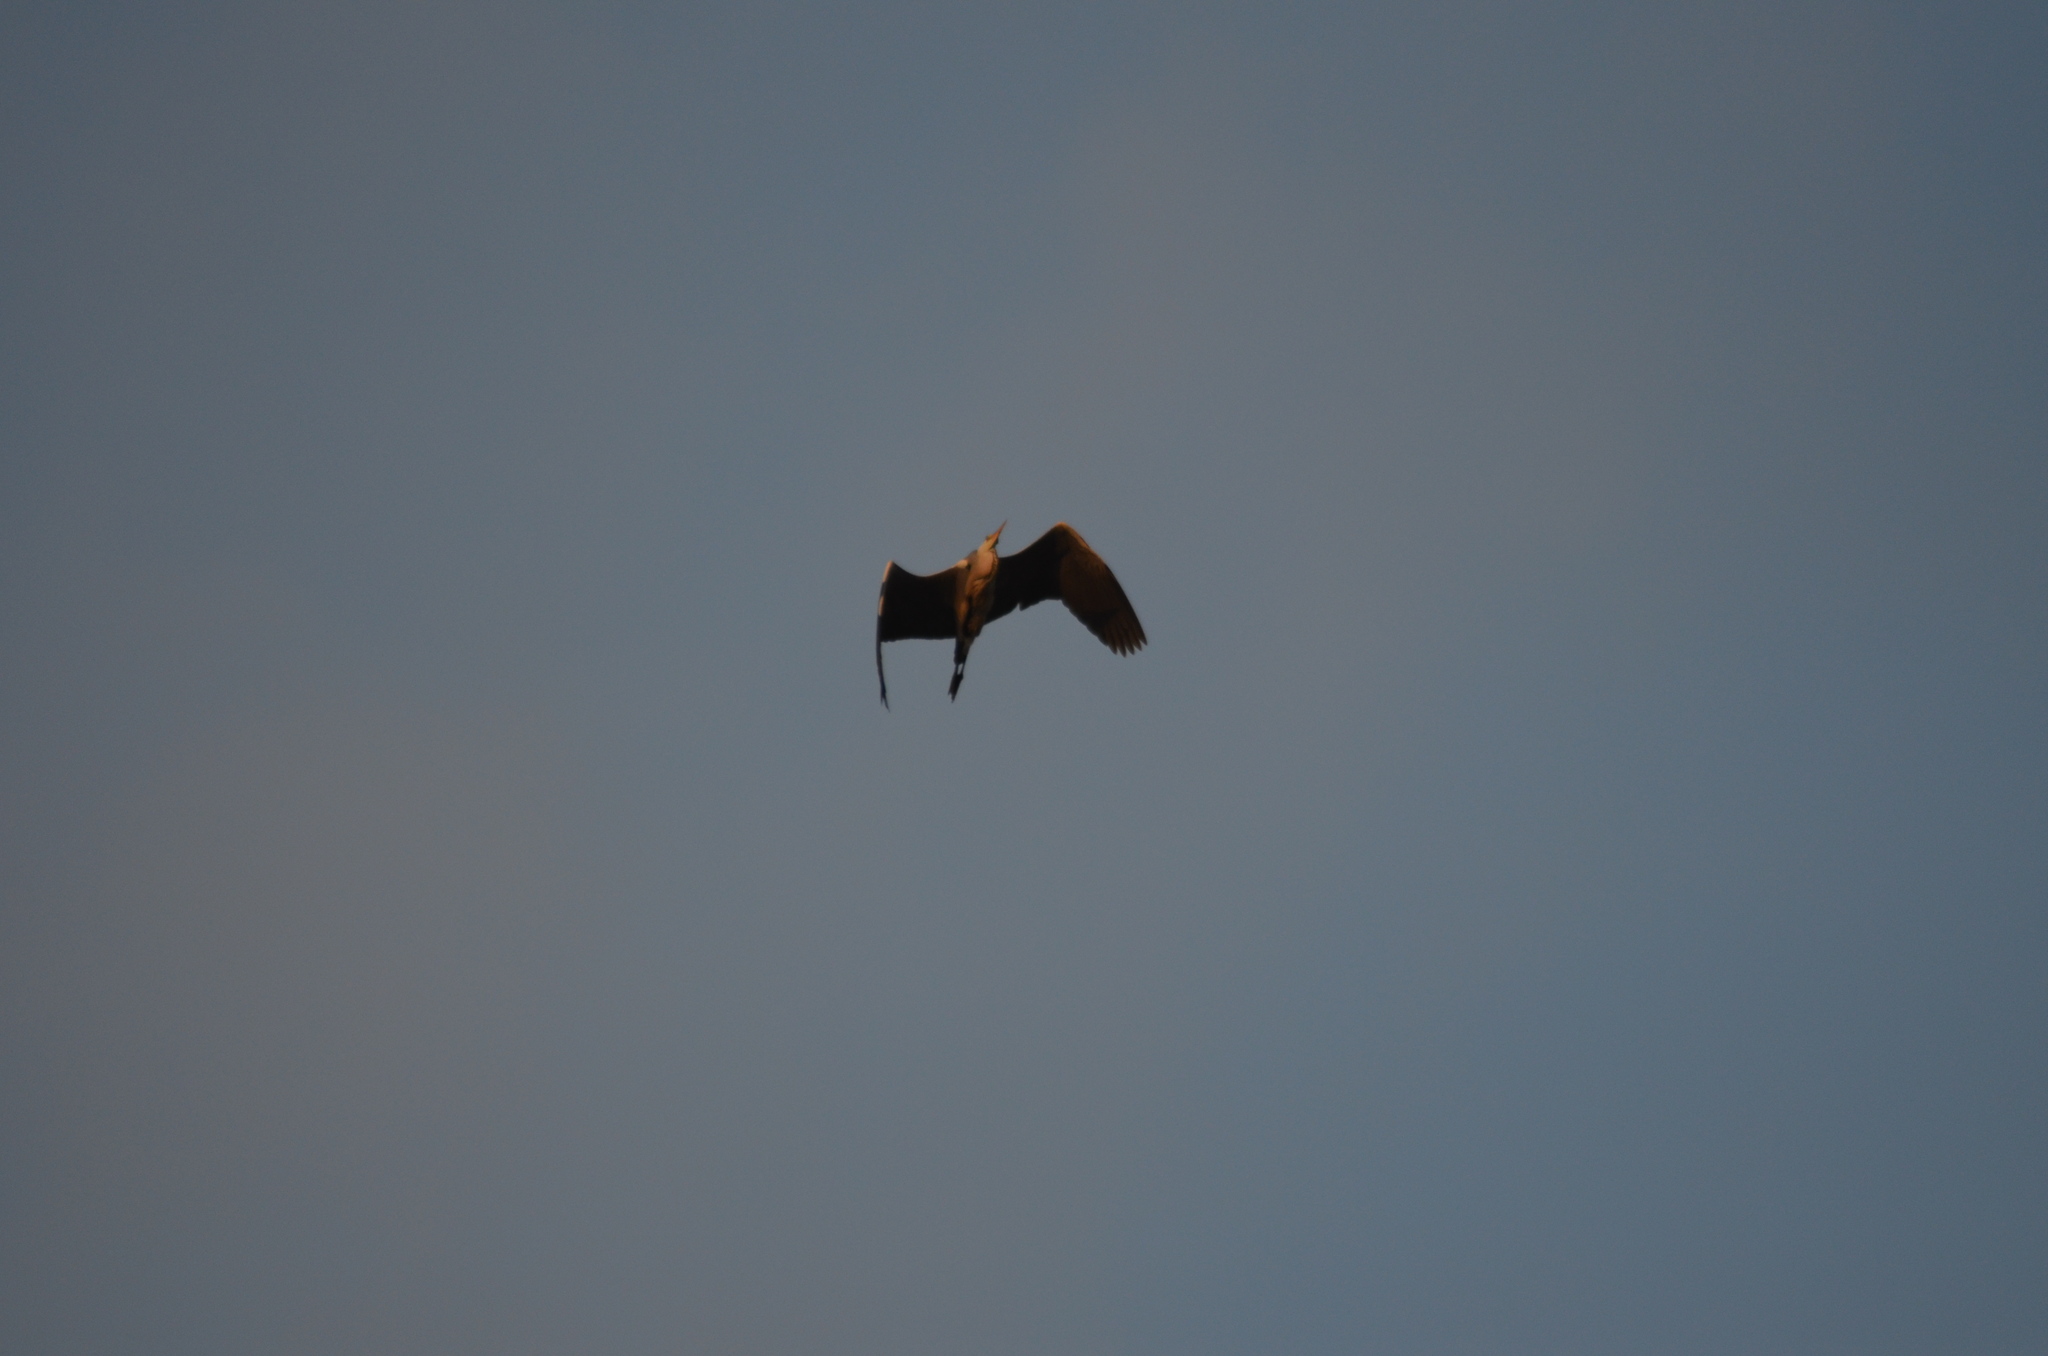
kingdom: Animalia
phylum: Chordata
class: Aves
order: Pelecaniformes
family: Ardeidae
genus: Ardea
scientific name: Ardea cinerea
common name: Grey heron
